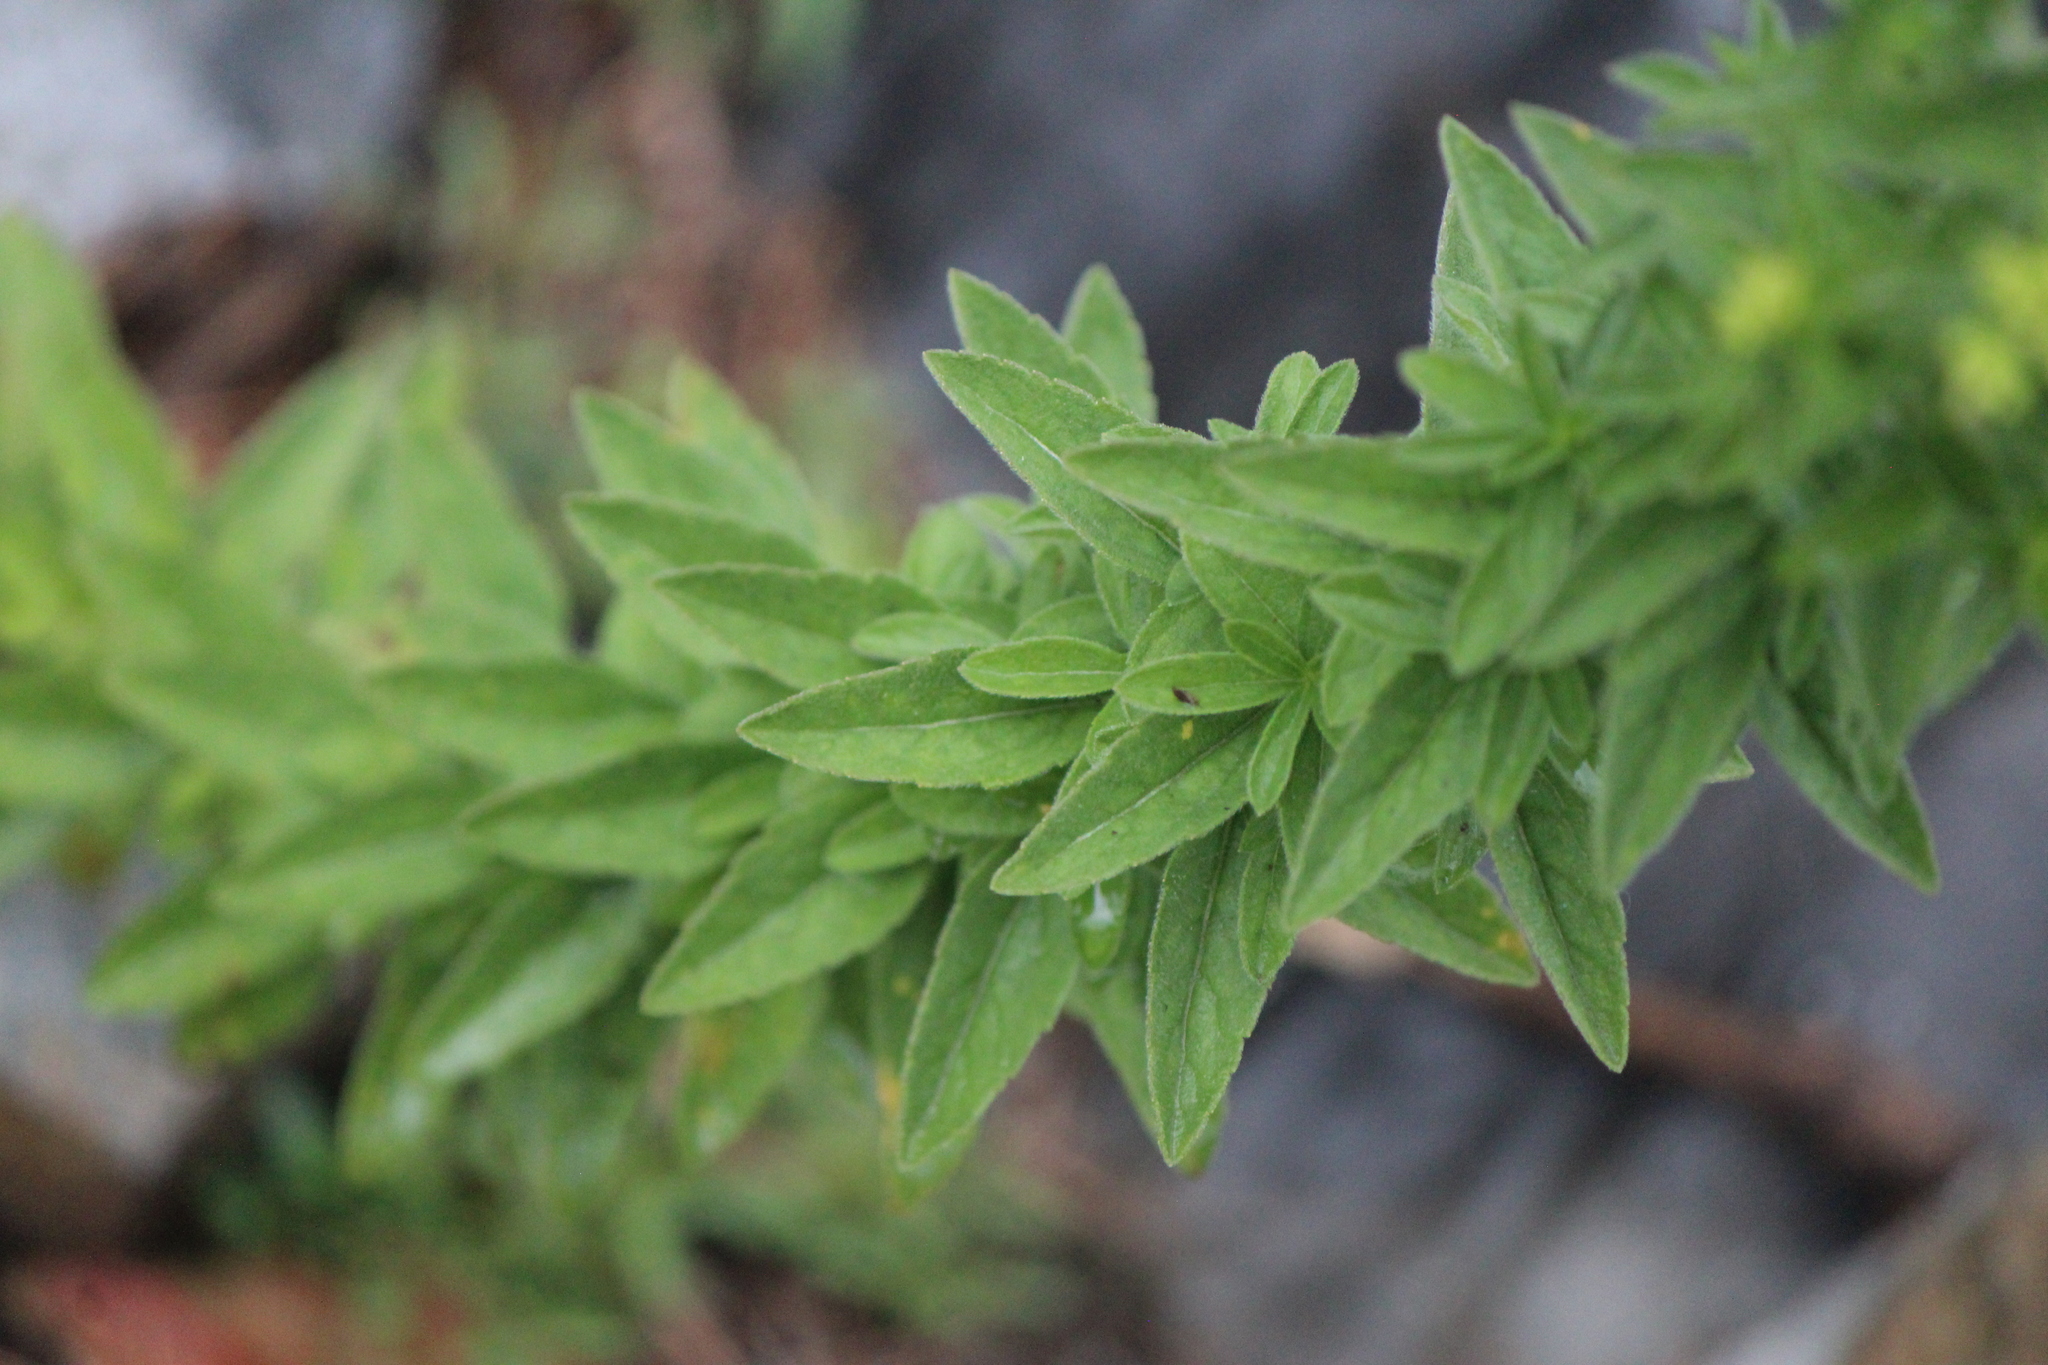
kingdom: Plantae
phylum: Tracheophyta
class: Magnoliopsida
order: Asterales
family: Asteraceae
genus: Stevia
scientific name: Stevia serrata
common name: Sawtooth candyleaf
